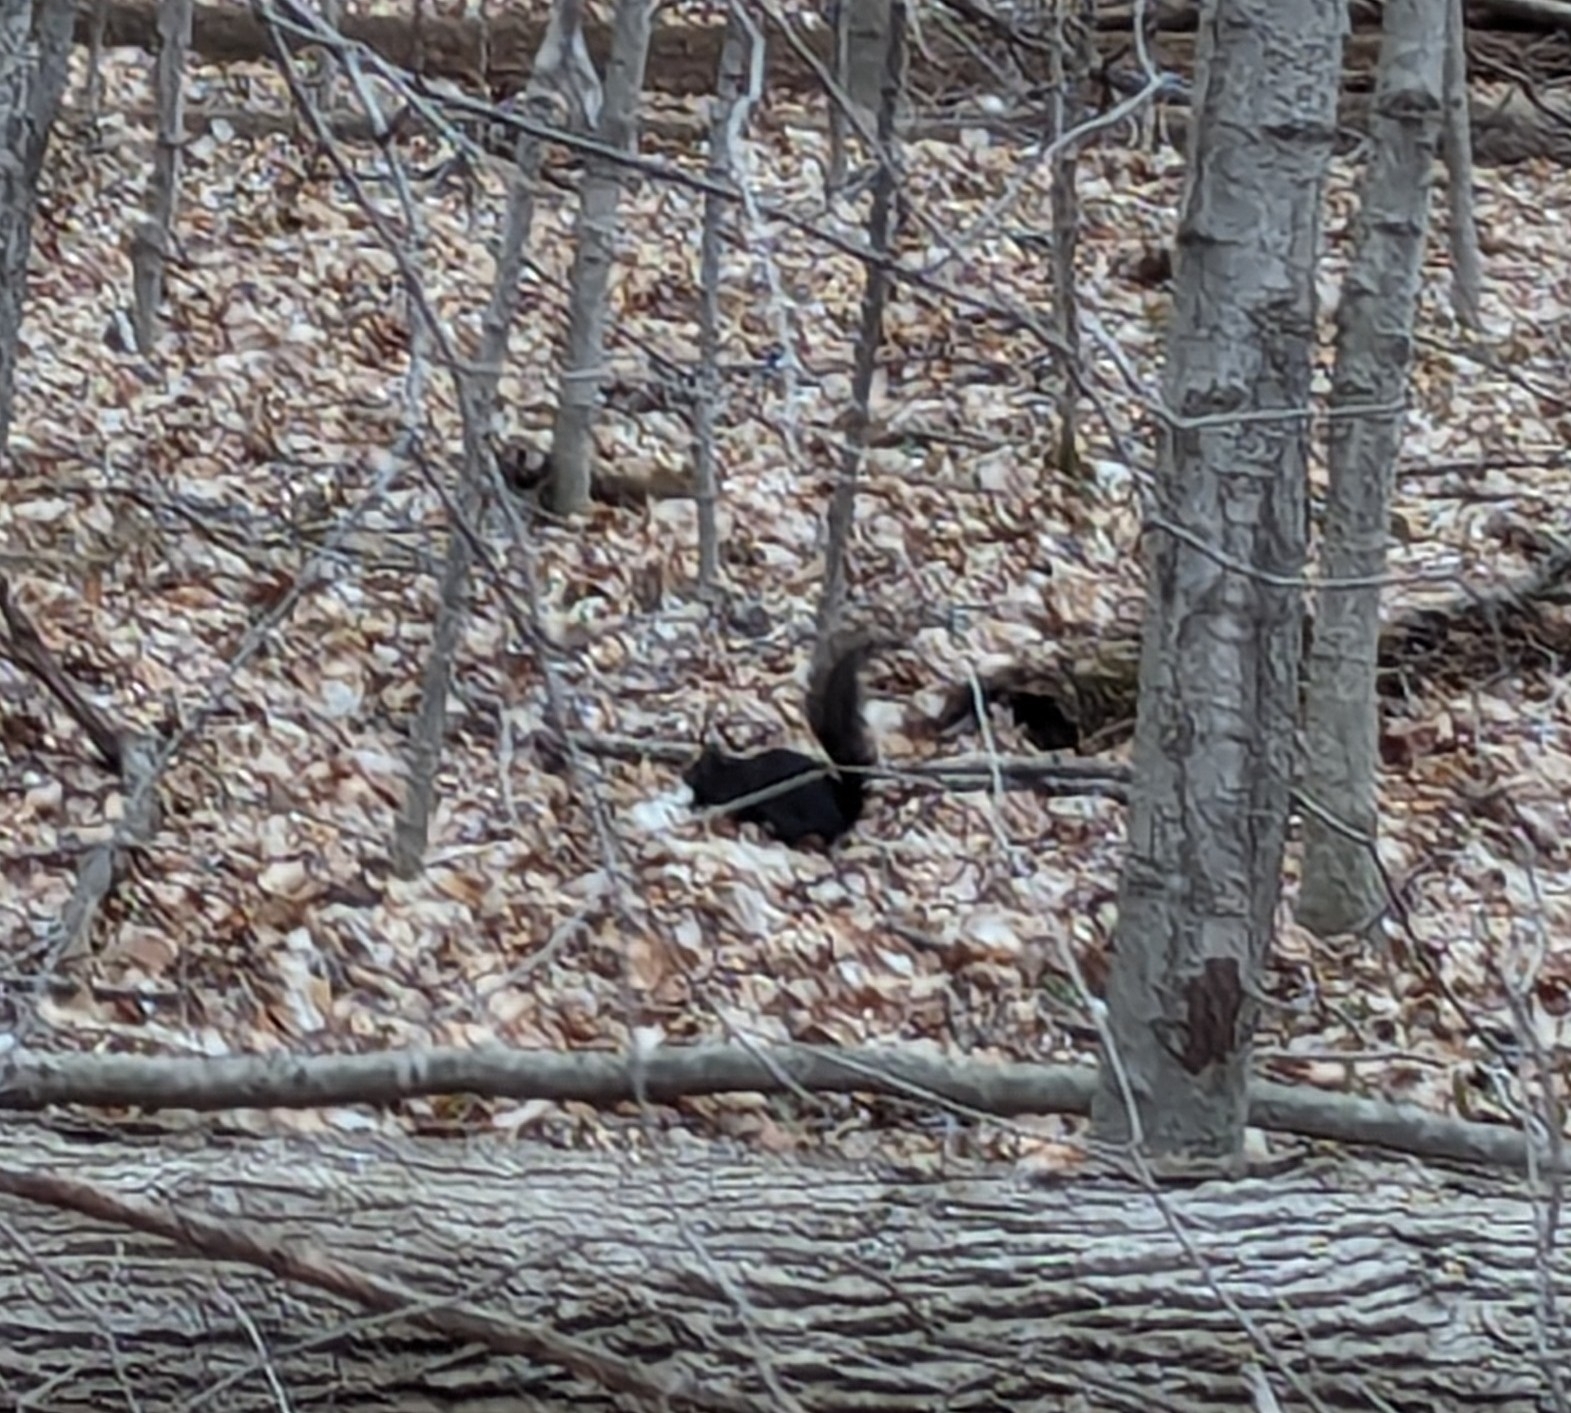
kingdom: Animalia
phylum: Chordata
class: Mammalia
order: Rodentia
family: Sciuridae
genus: Sciurus
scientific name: Sciurus carolinensis
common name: Eastern gray squirrel
